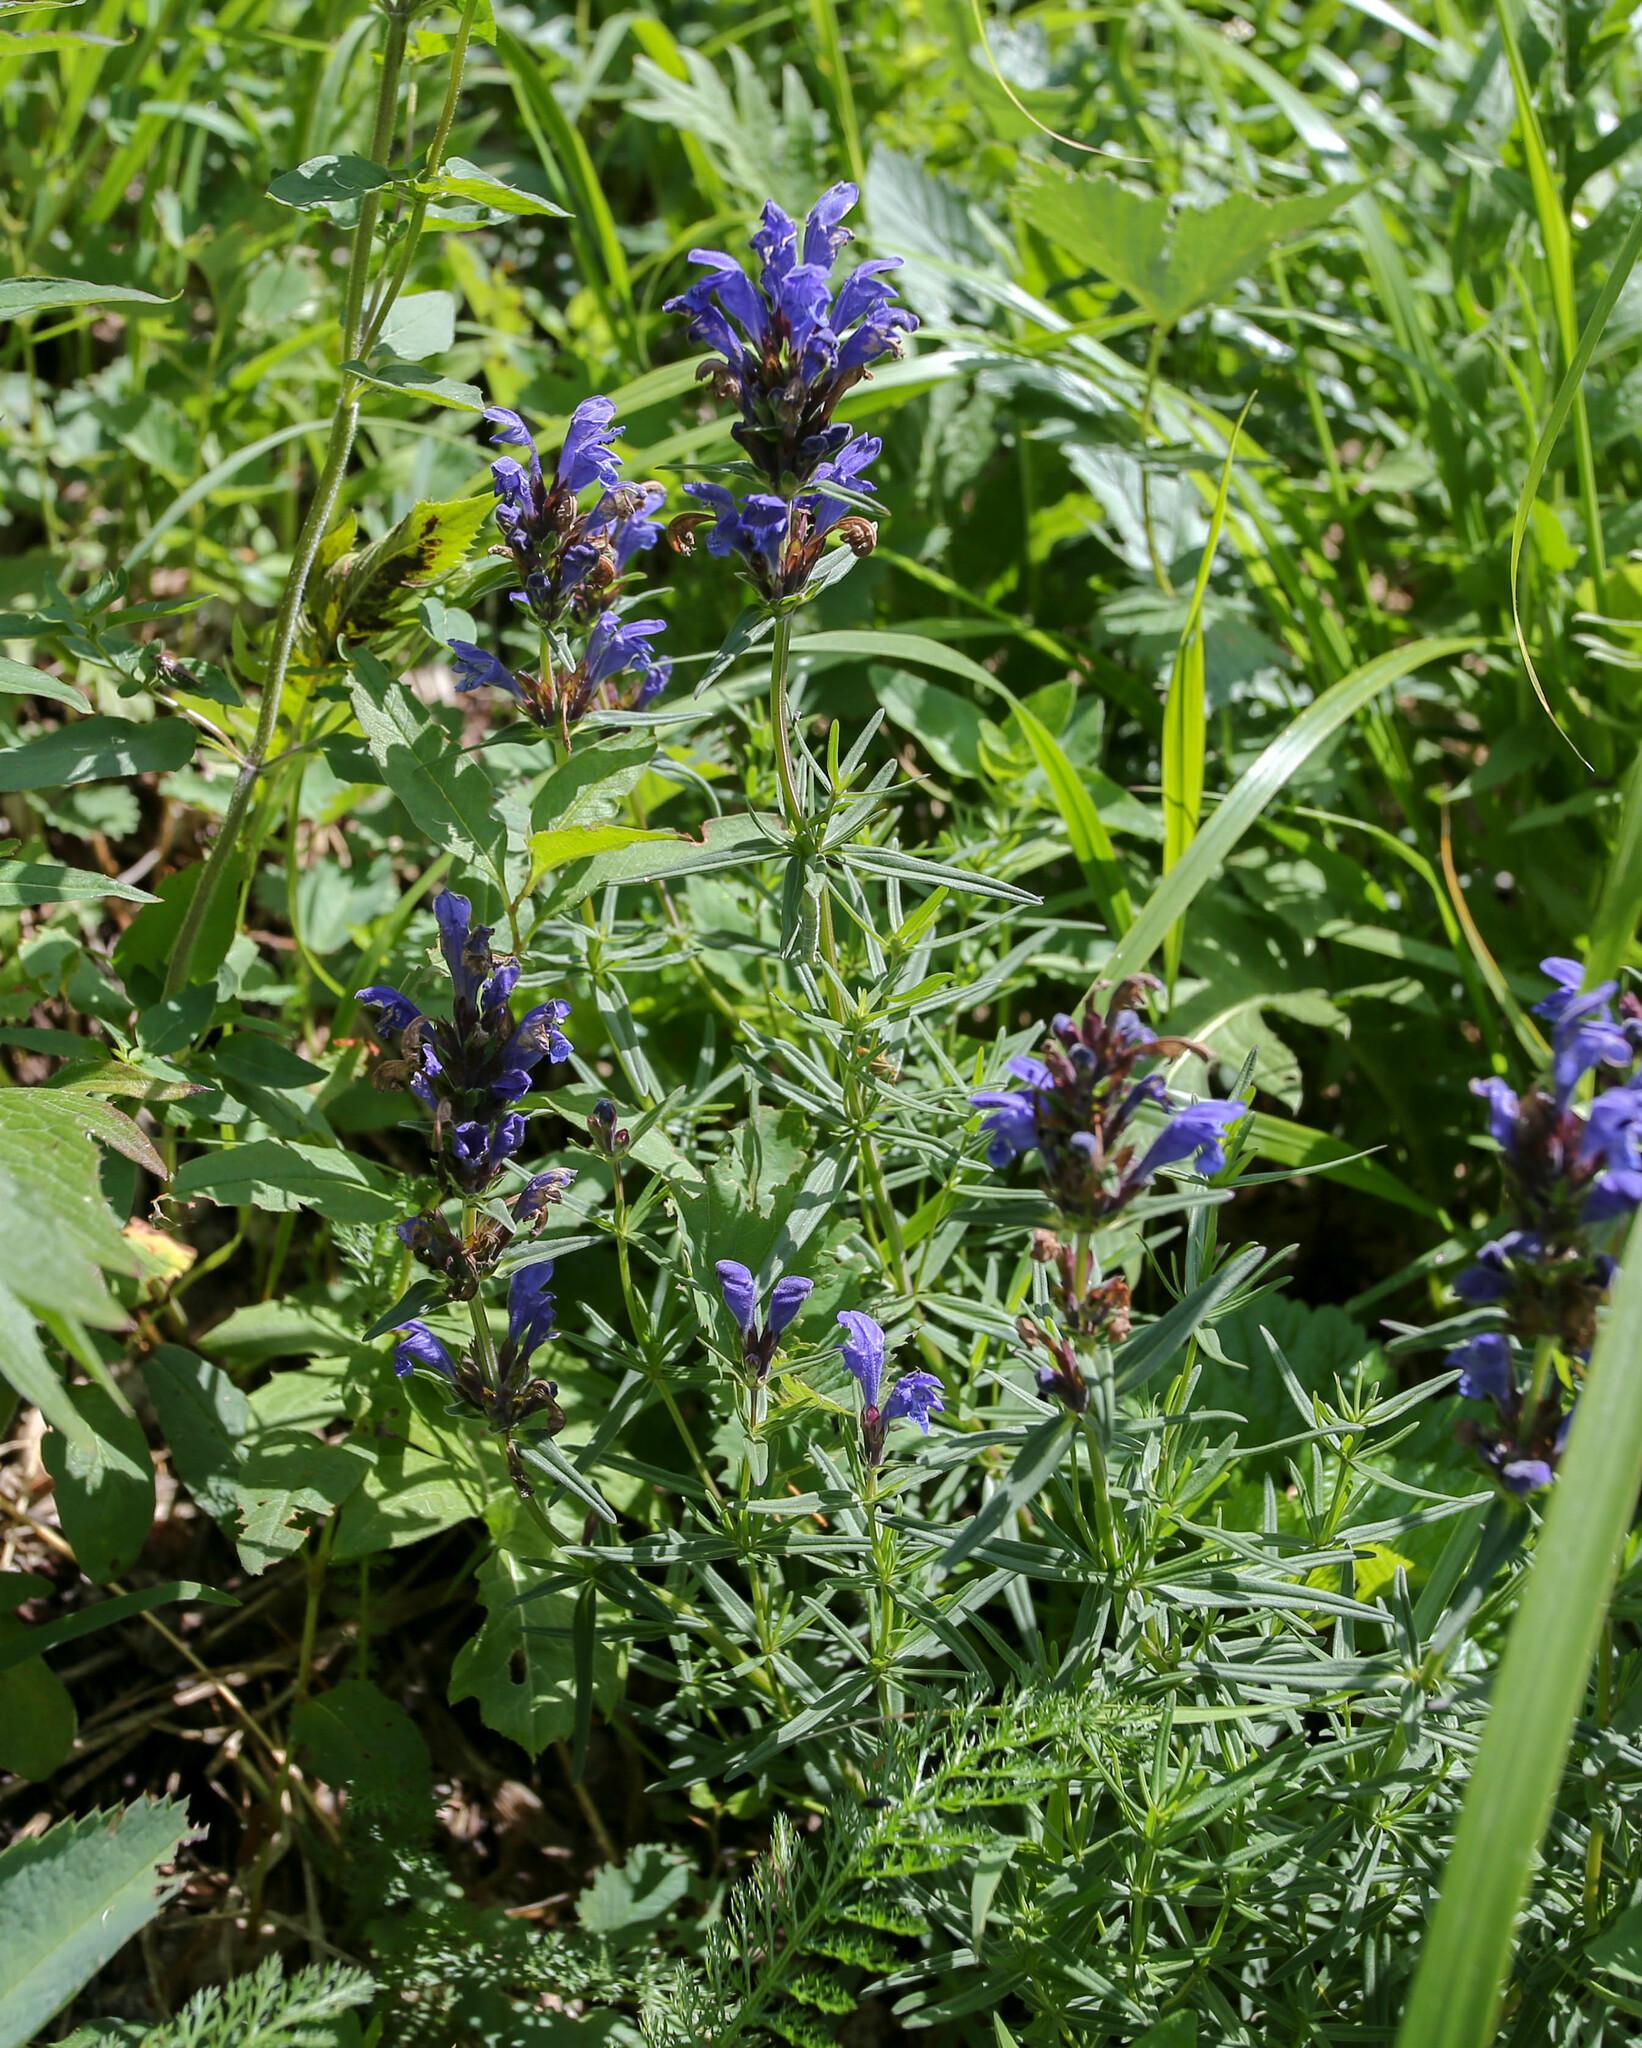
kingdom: Plantae
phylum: Tracheophyta
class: Magnoliopsida
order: Lamiales
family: Lamiaceae
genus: Dracocephalum
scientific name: Dracocephalum ruyschiana
